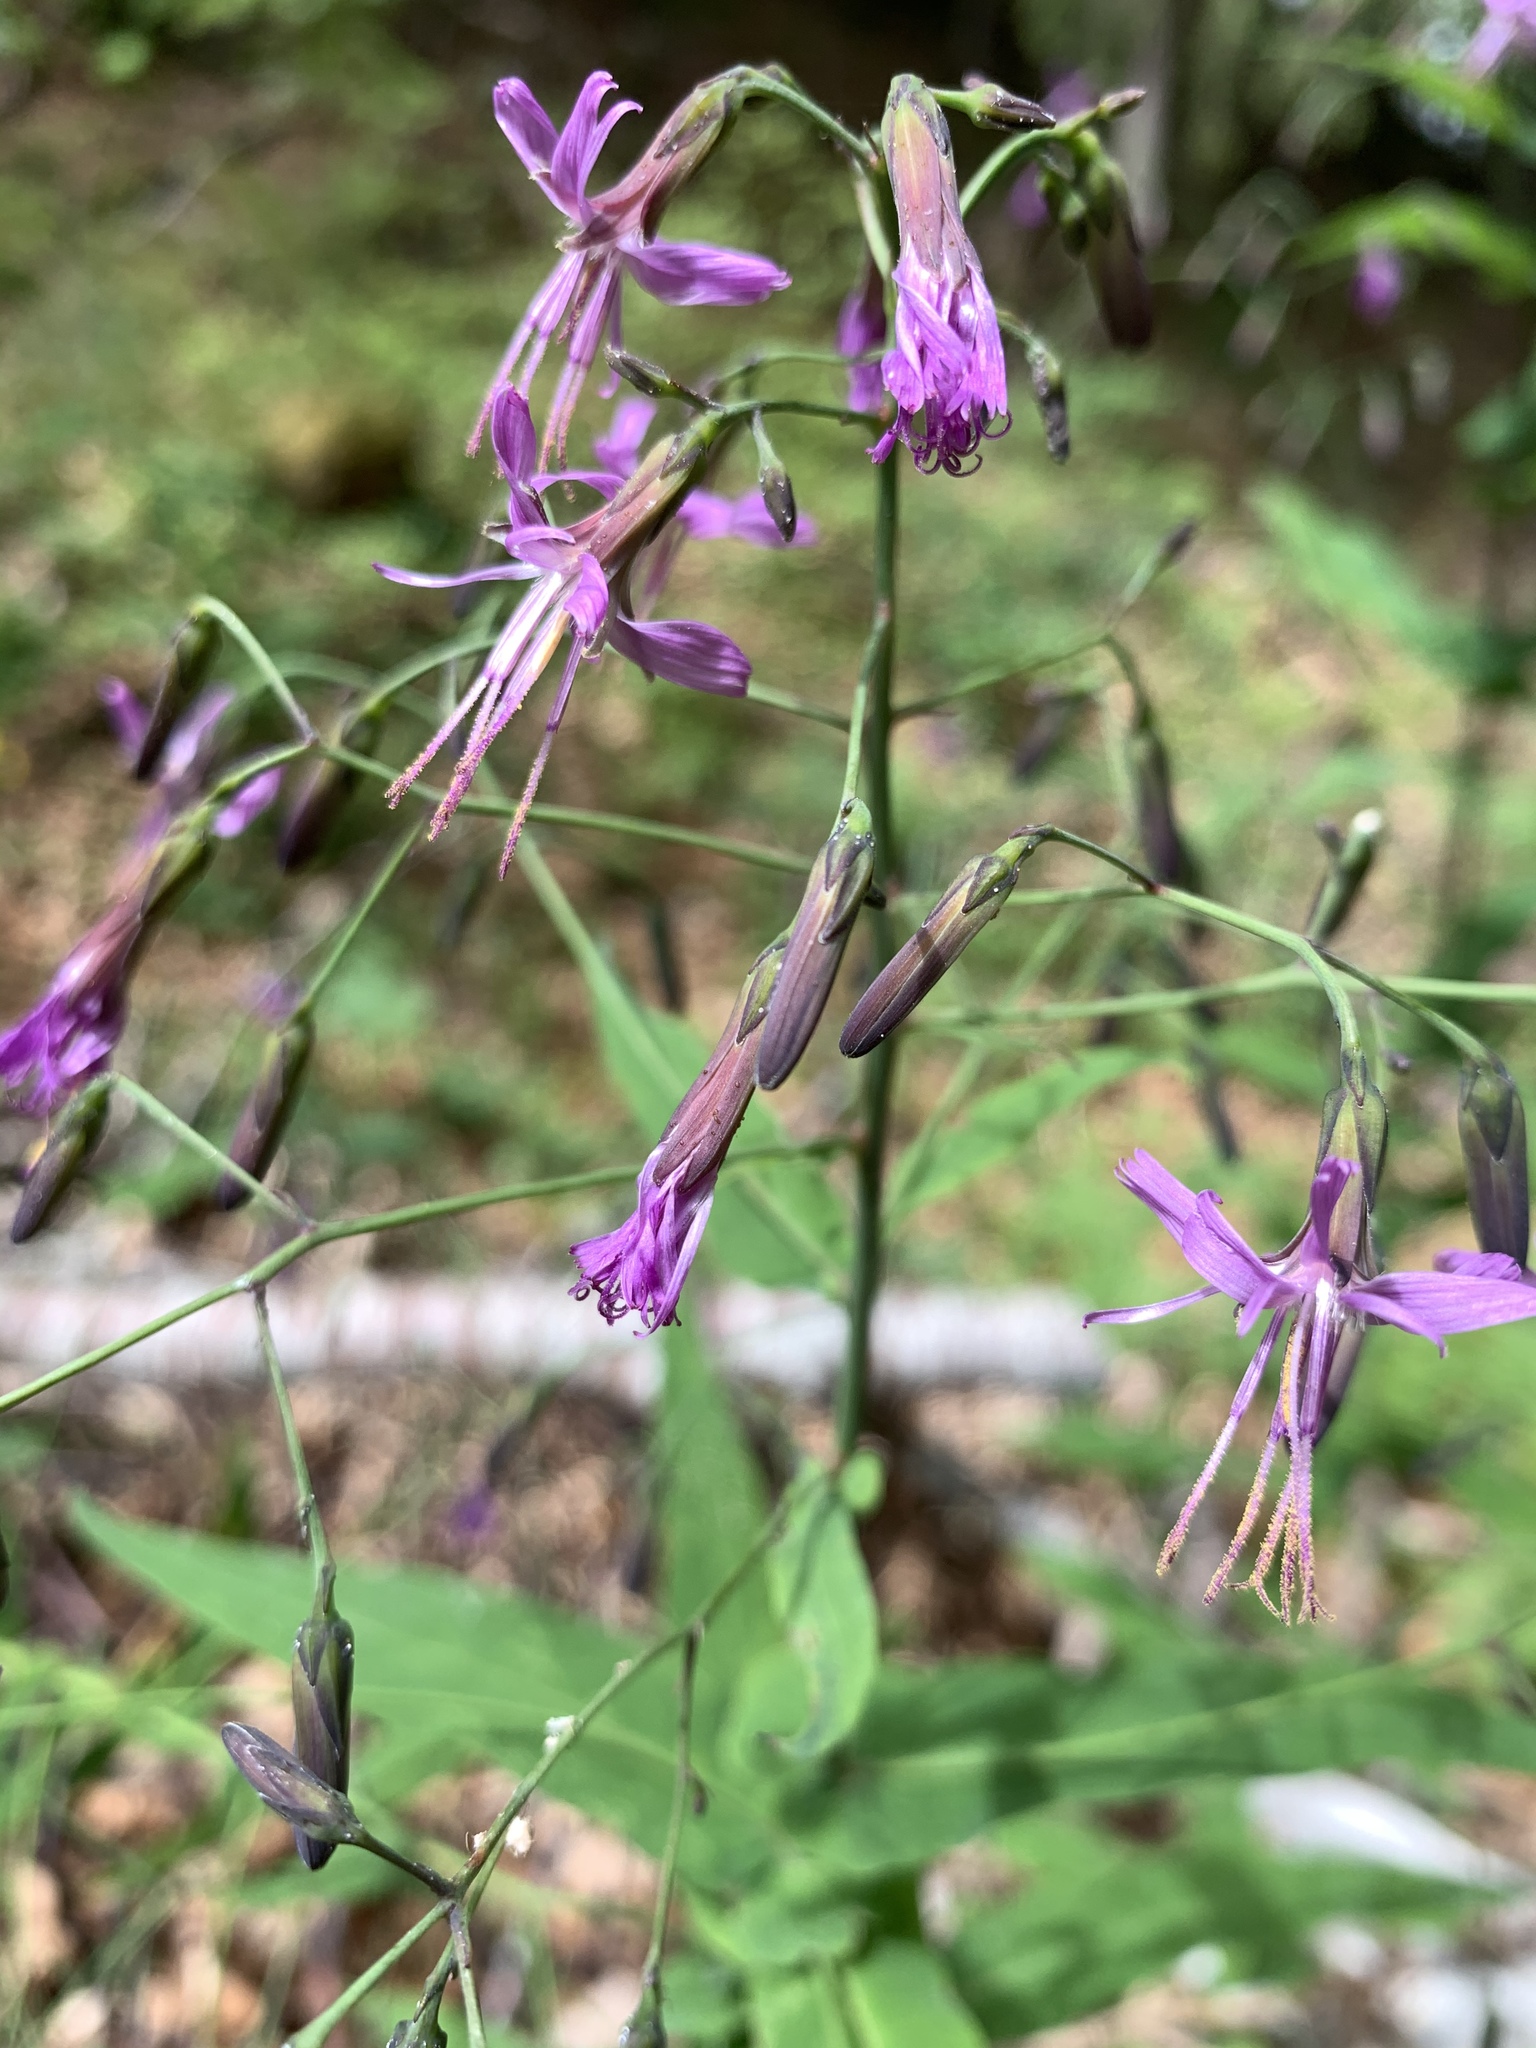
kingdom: Plantae
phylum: Tracheophyta
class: Magnoliopsida
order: Asterales
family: Asteraceae
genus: Prenanthes
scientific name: Prenanthes purpurea
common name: Purple lettuce
